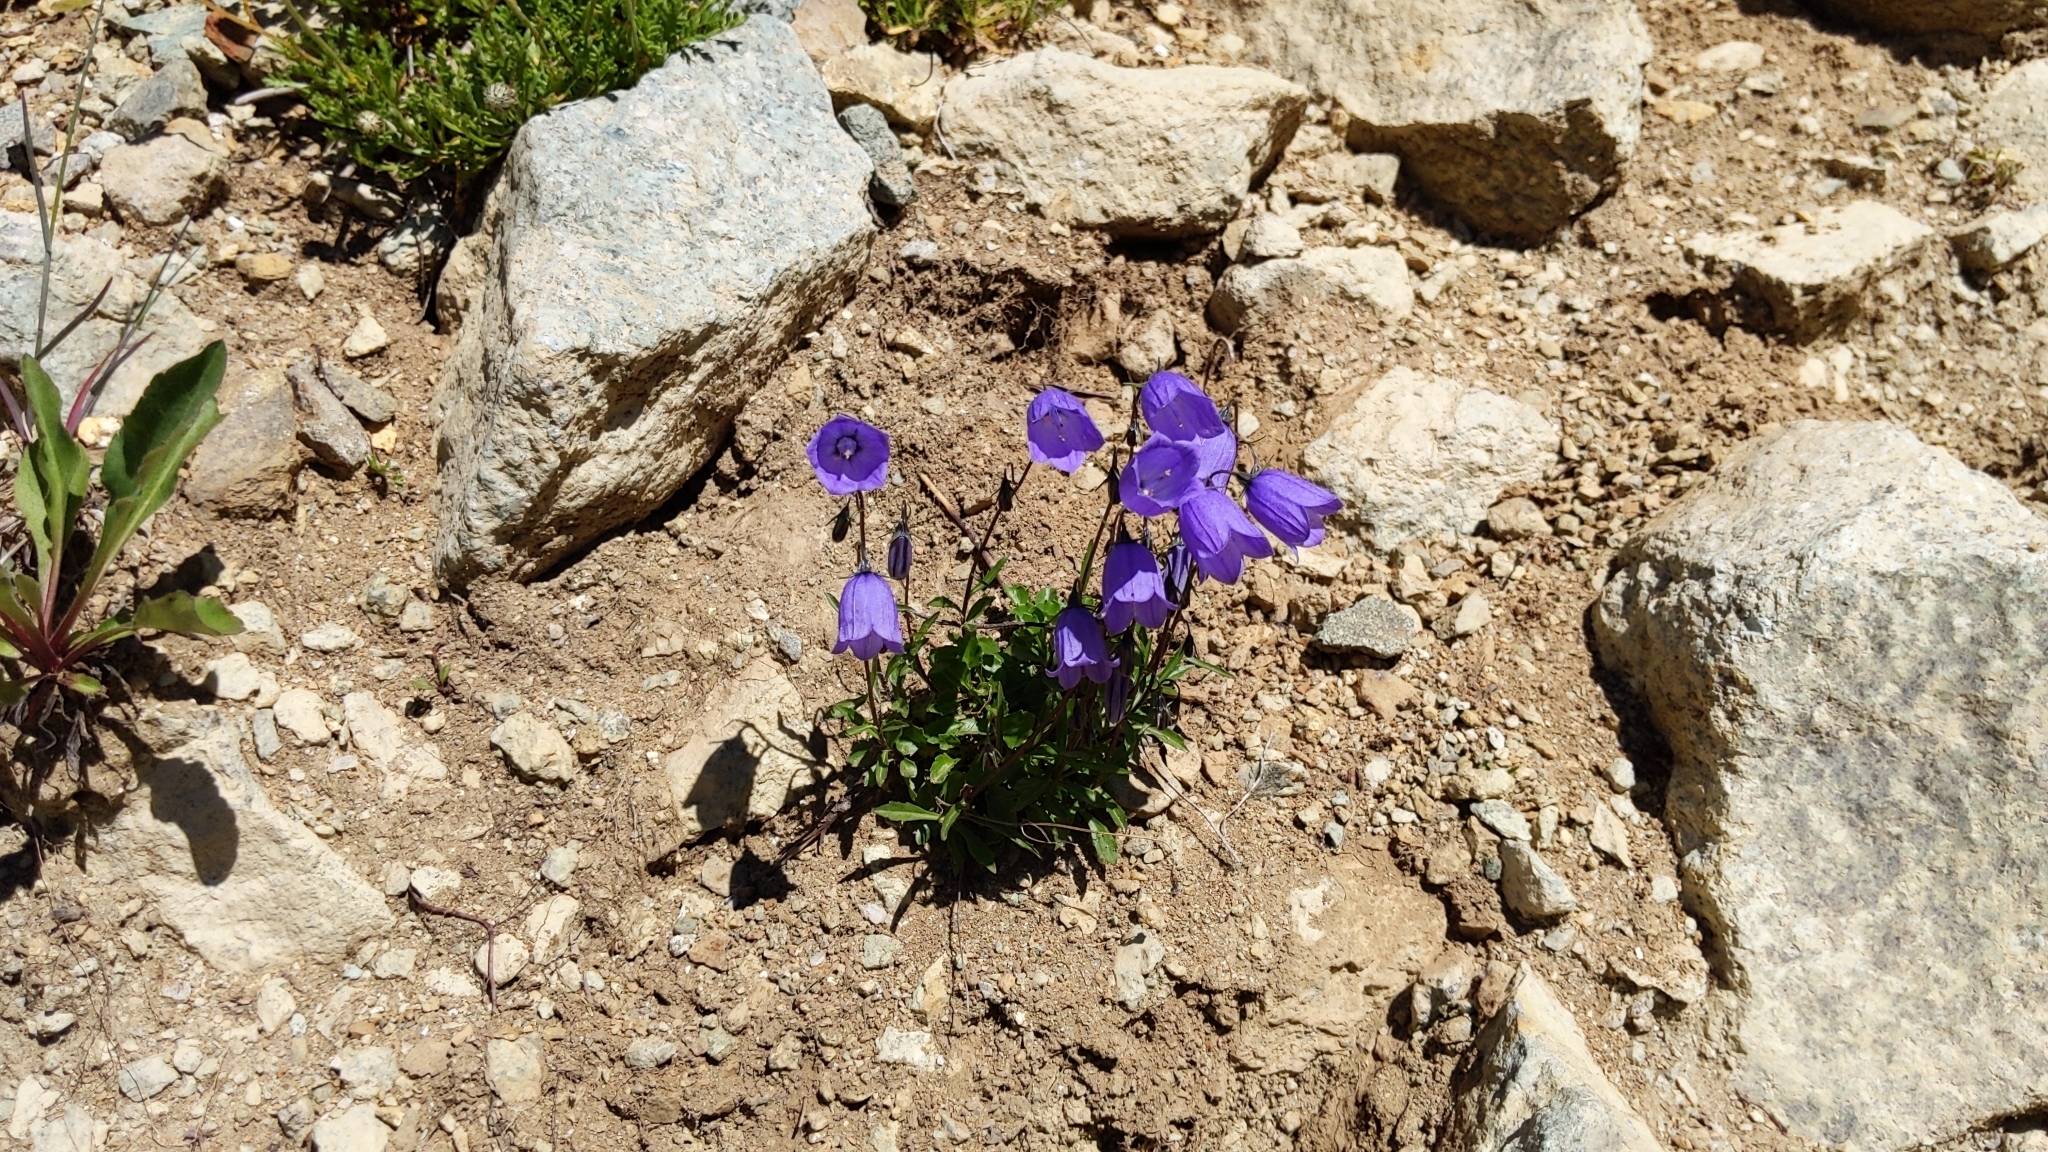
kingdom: Plantae
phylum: Tracheophyta
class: Magnoliopsida
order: Asterales
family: Campanulaceae
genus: Campanula
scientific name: Campanula cochleariifolia
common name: Fairies'-thimbles
